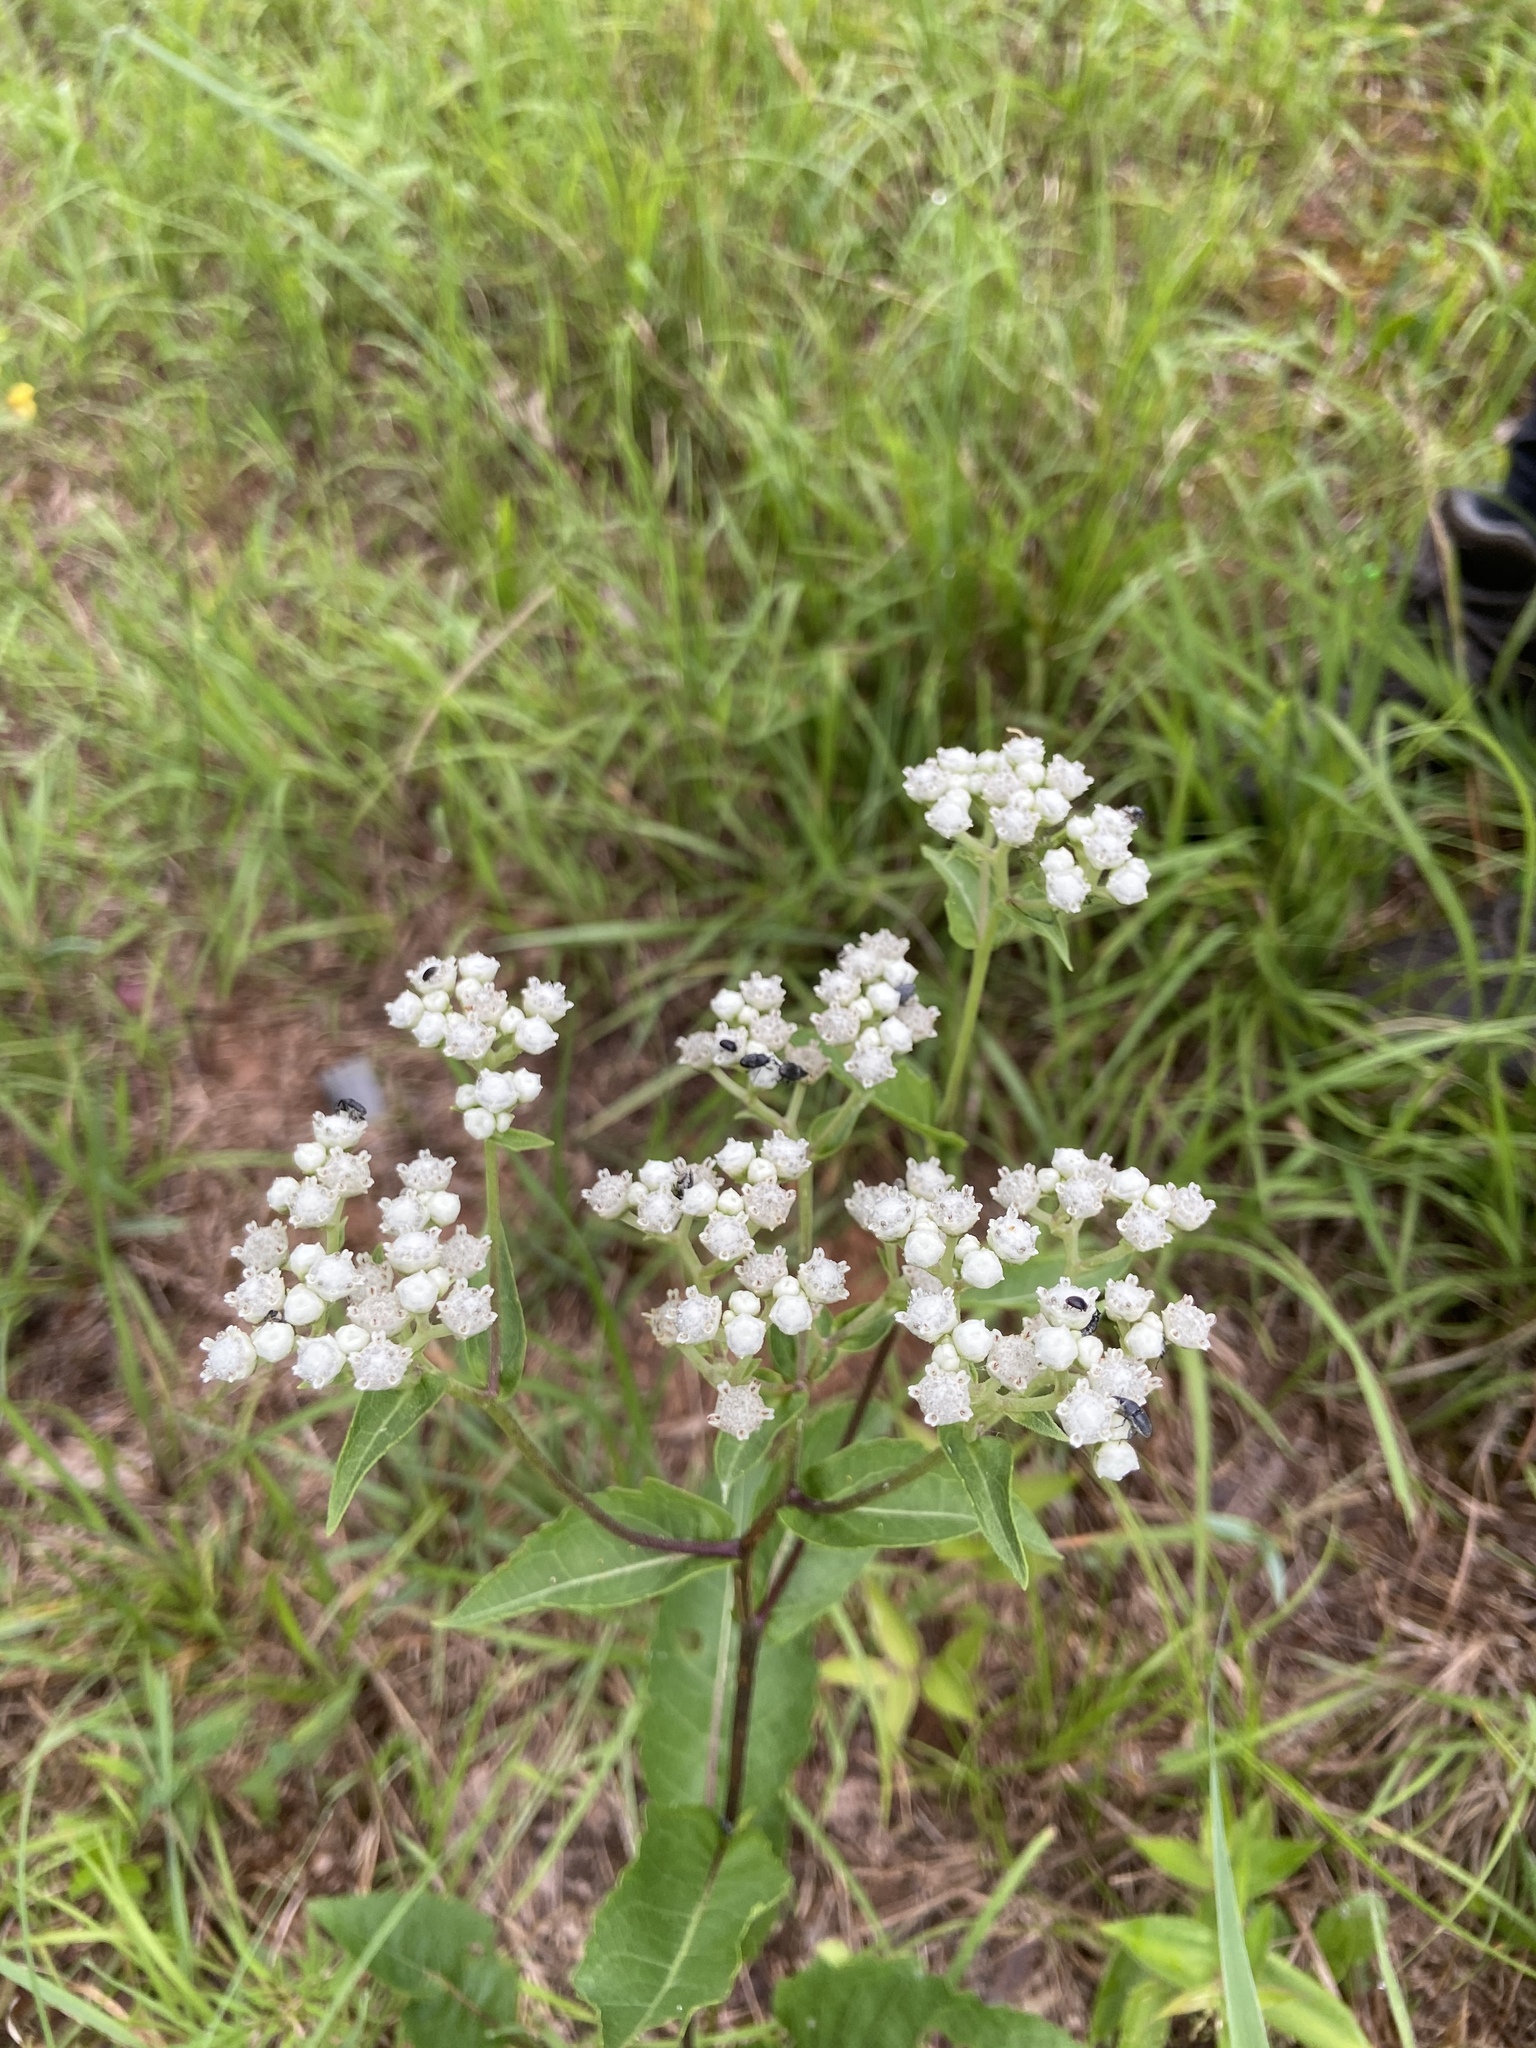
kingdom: Plantae
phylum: Tracheophyta
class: Magnoliopsida
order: Asterales
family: Asteraceae
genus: Parthenium
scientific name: Parthenium integrifolium
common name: American feverfew
